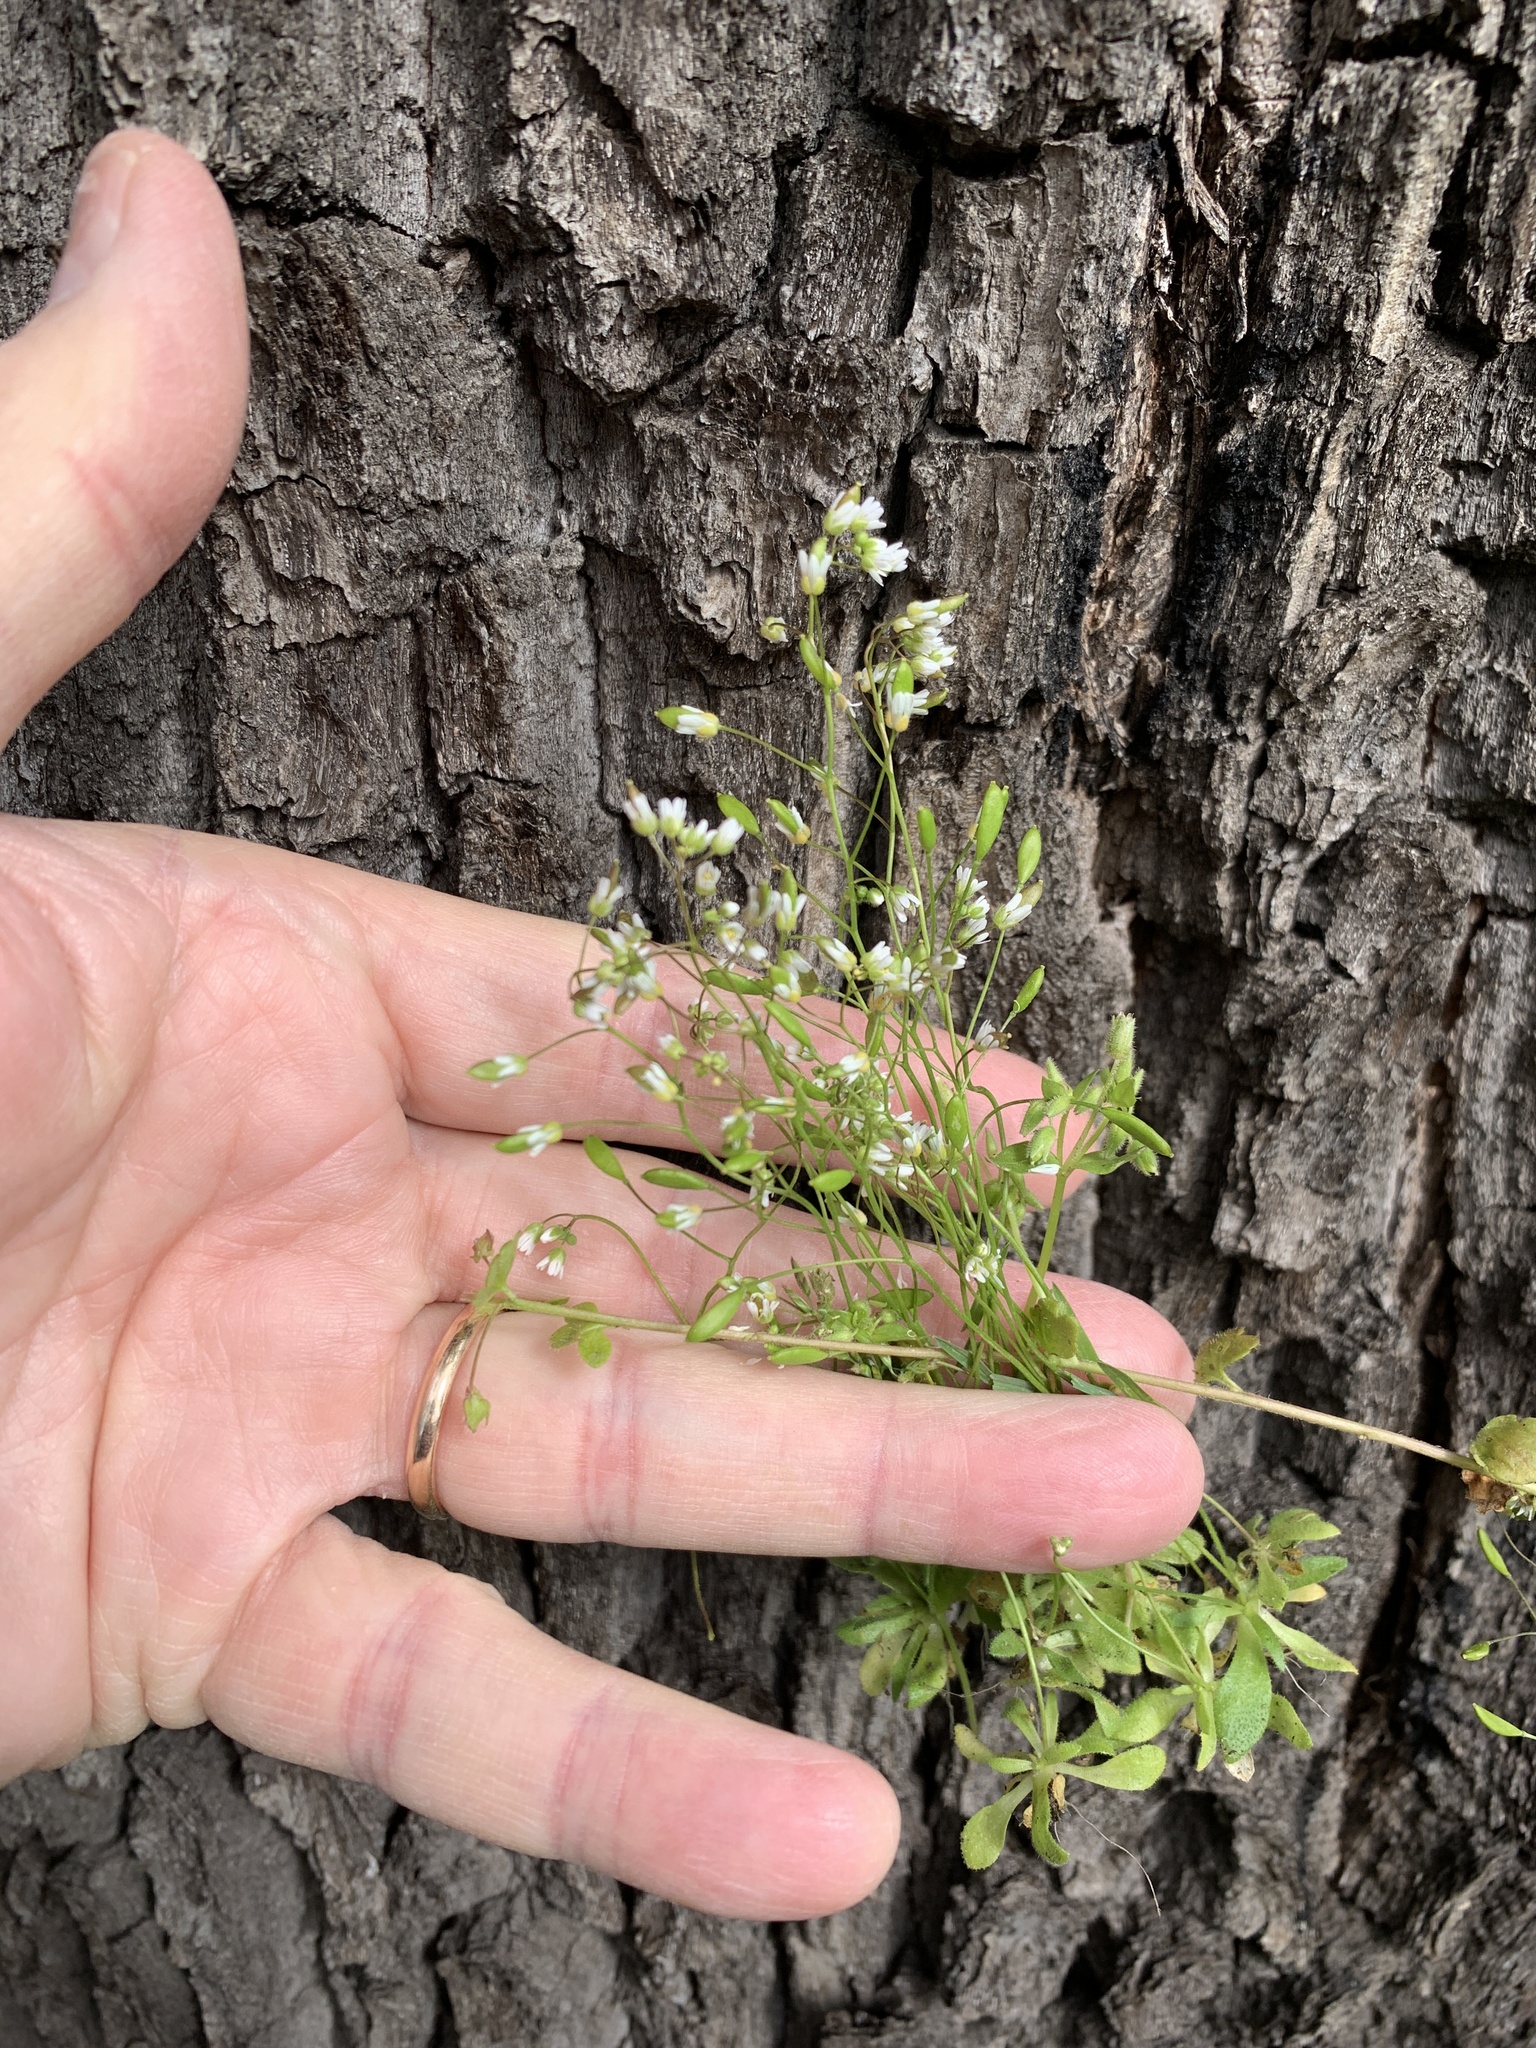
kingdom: Plantae
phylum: Tracheophyta
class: Magnoliopsida
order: Brassicales
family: Brassicaceae
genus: Draba
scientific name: Draba verna
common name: Spring draba
